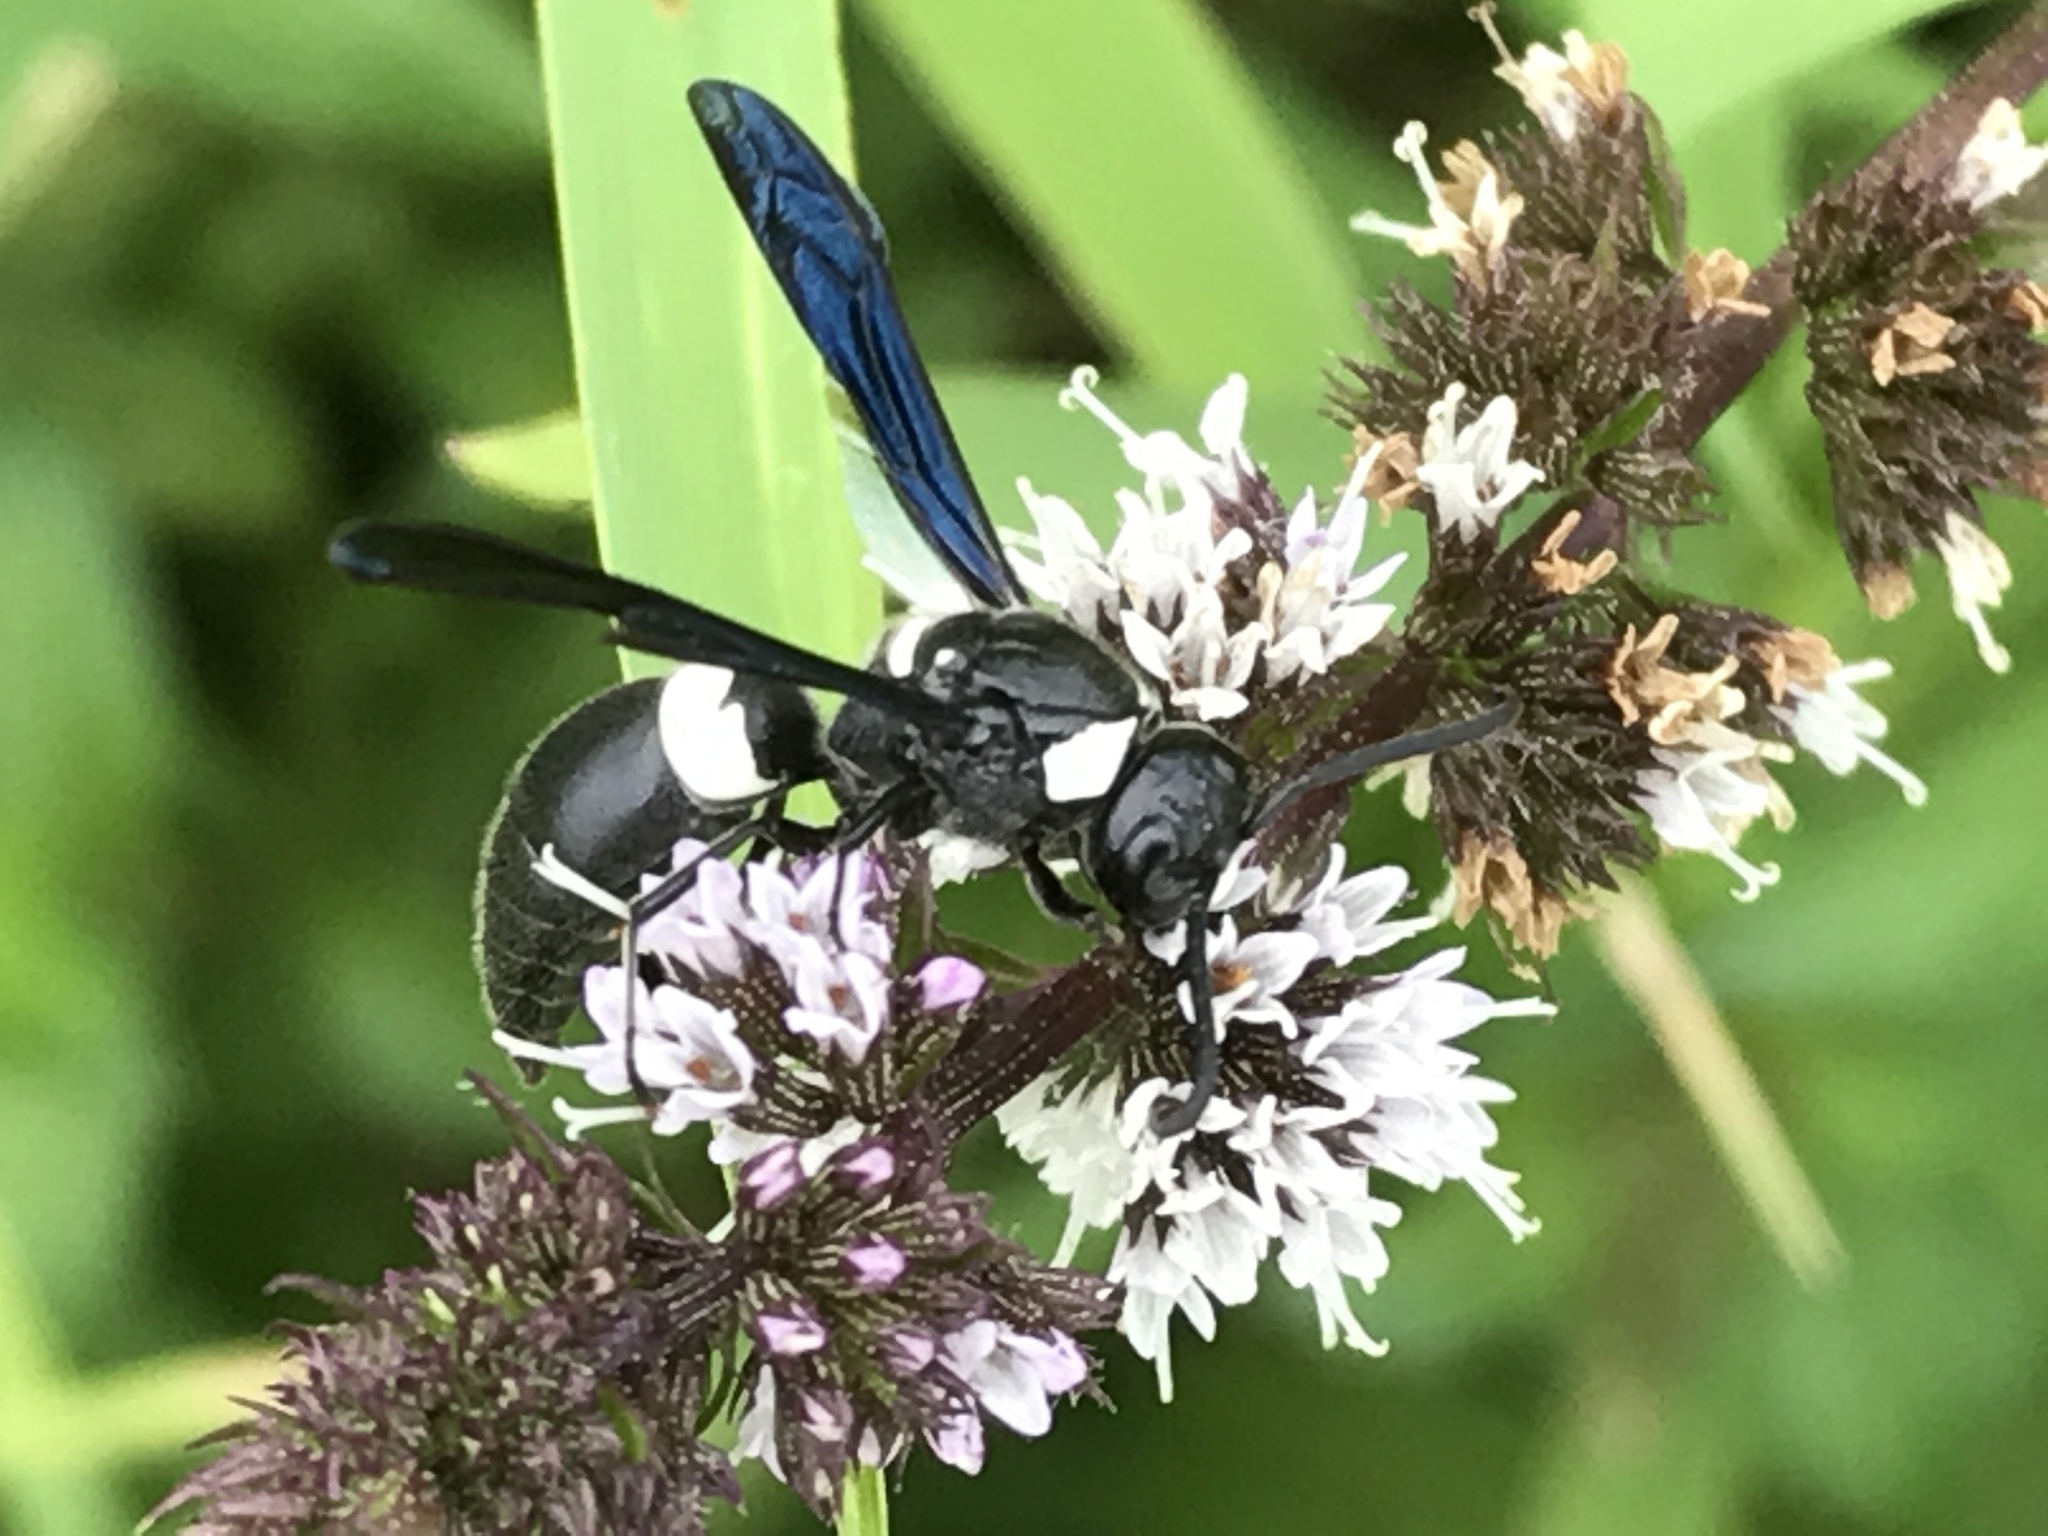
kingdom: Animalia
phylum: Arthropoda
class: Insecta
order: Hymenoptera
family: Eumenidae
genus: Monobia
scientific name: Monobia quadridens
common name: Four-toothed mason wasp
